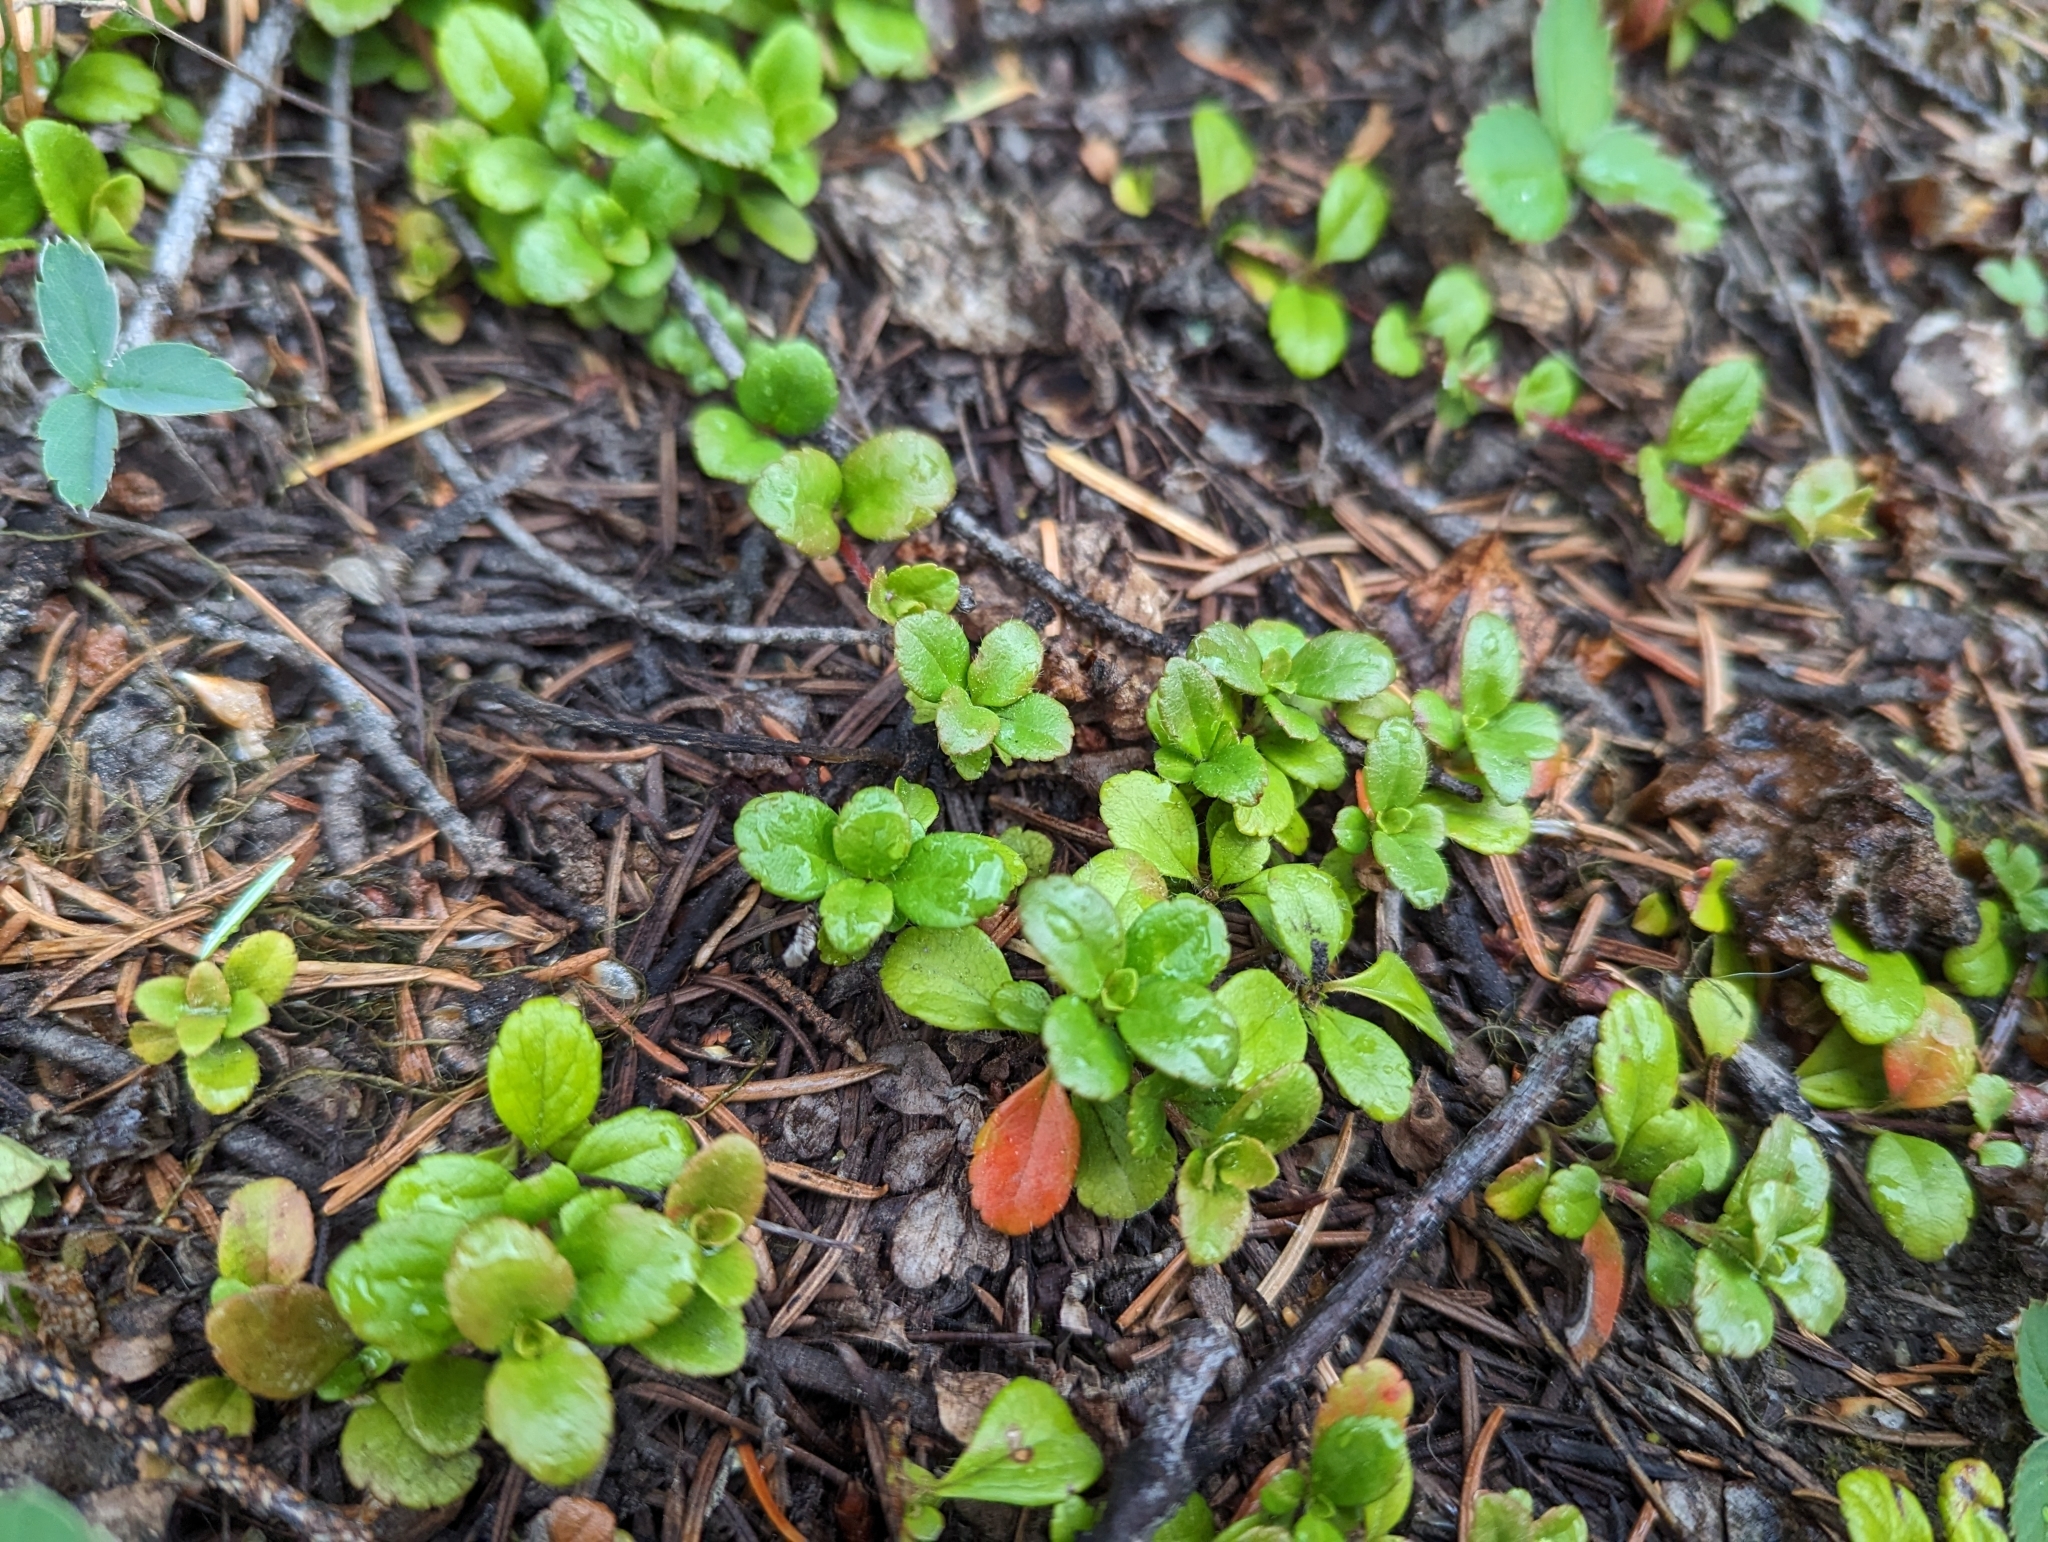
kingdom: Plantae
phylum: Tracheophyta
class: Magnoliopsida
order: Dipsacales
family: Caprifoliaceae
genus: Linnaea
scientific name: Linnaea borealis
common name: Twinflower
